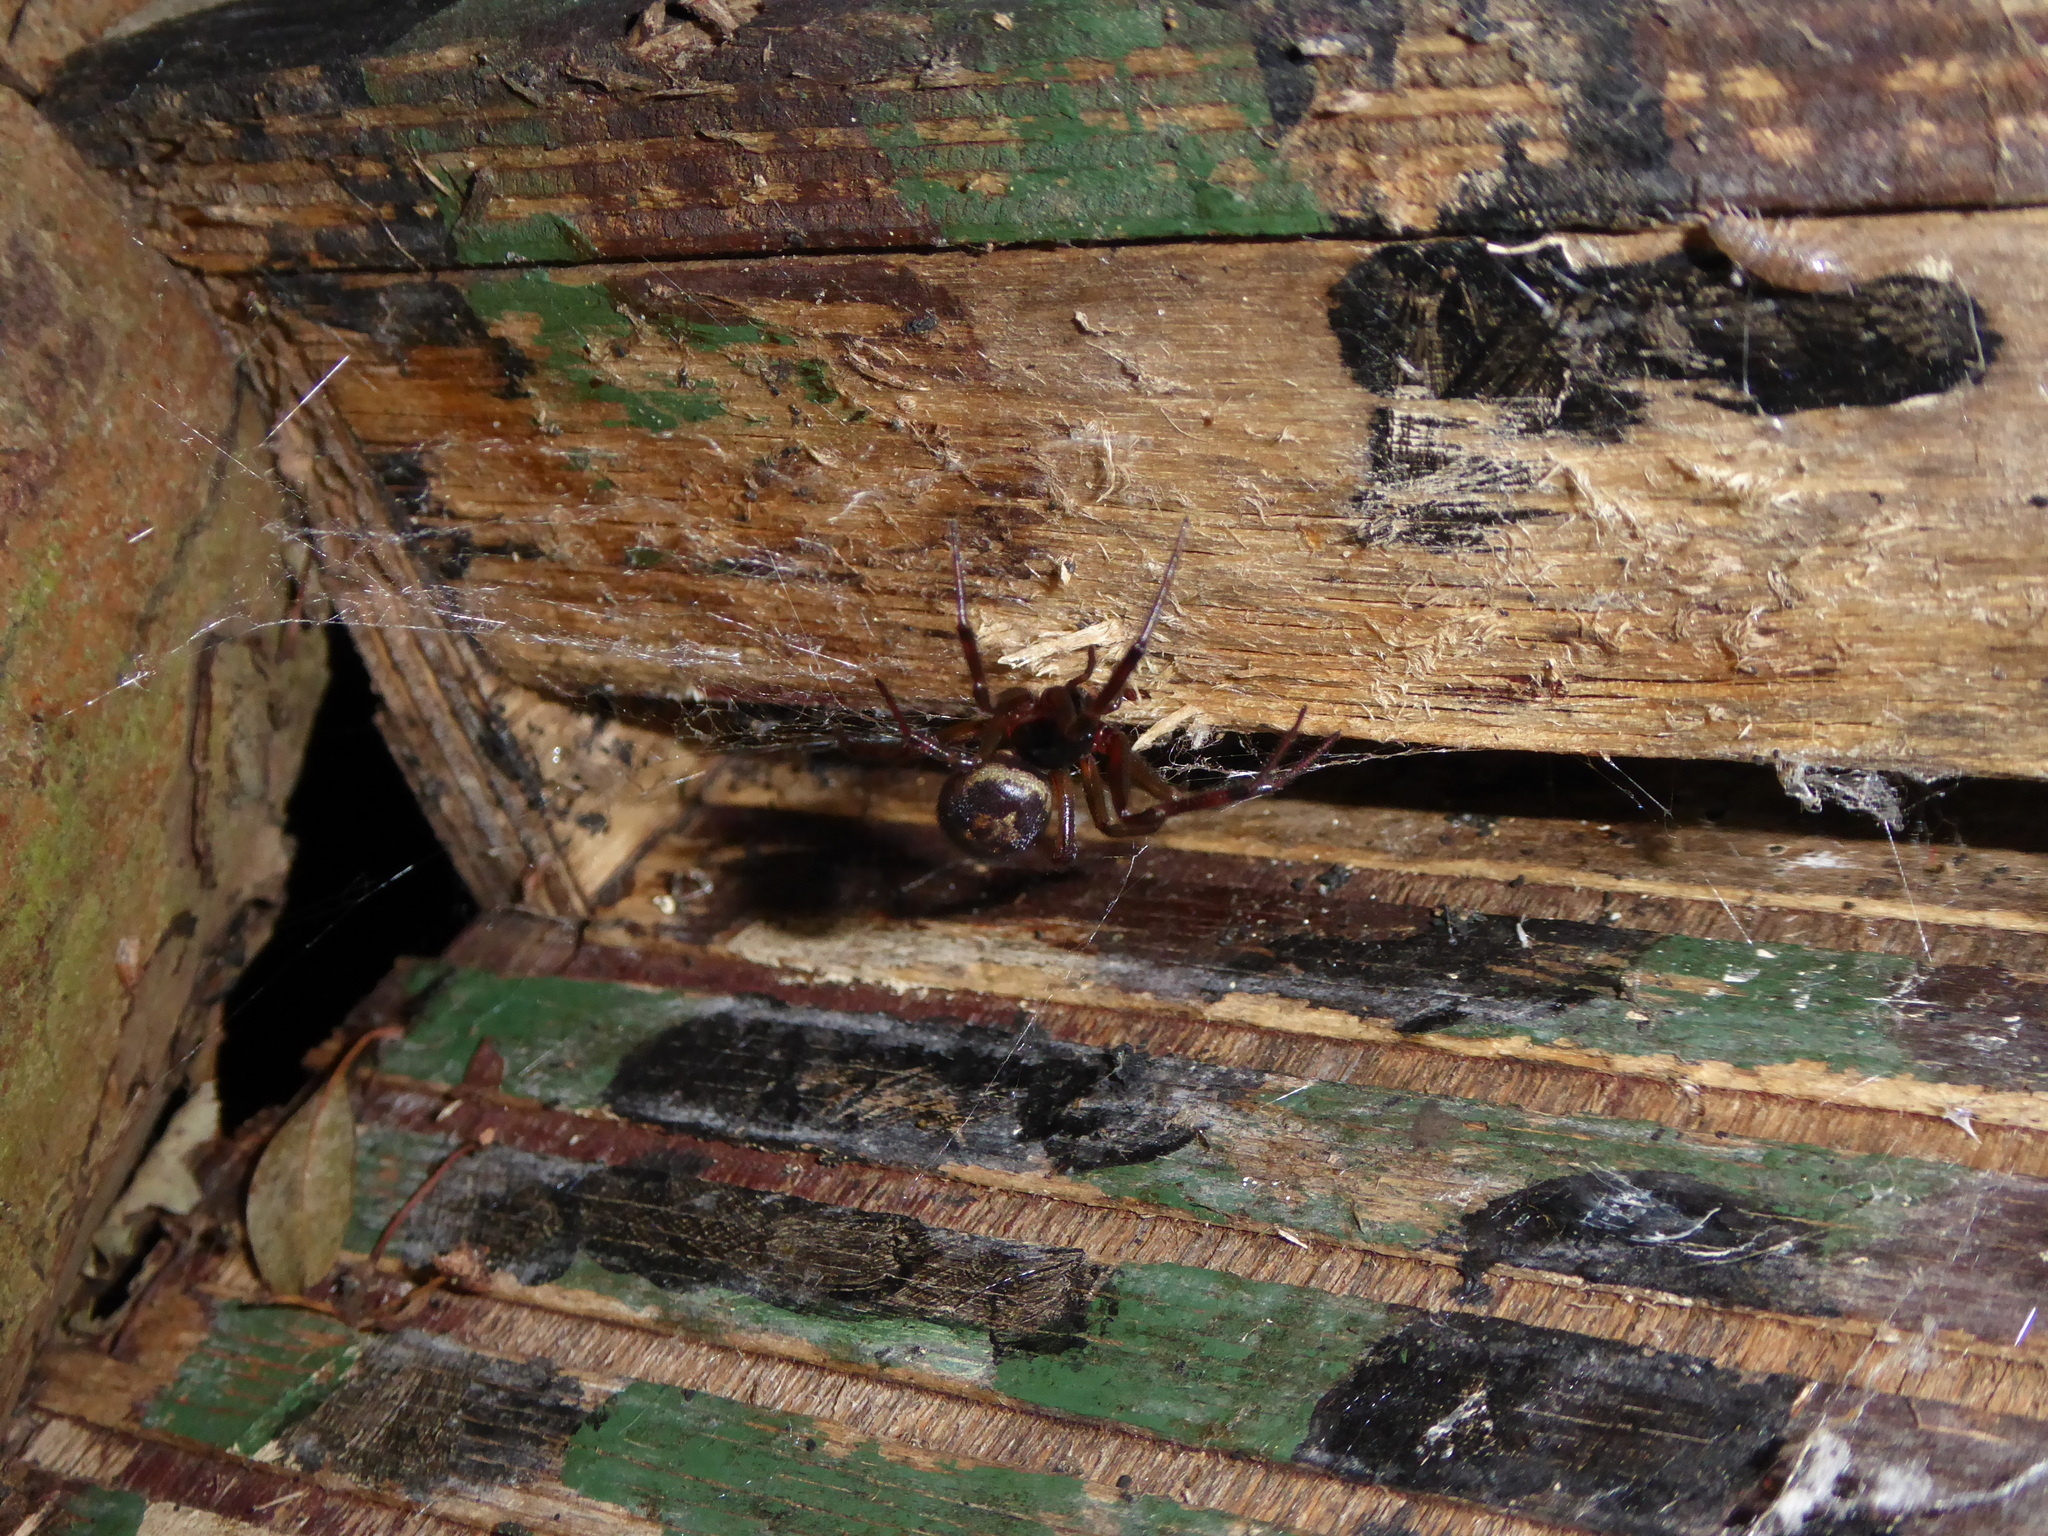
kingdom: Animalia
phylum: Arthropoda
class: Arachnida
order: Araneae
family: Theridiidae
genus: Steatoda
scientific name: Steatoda nobilis
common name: Cobweb weaver
